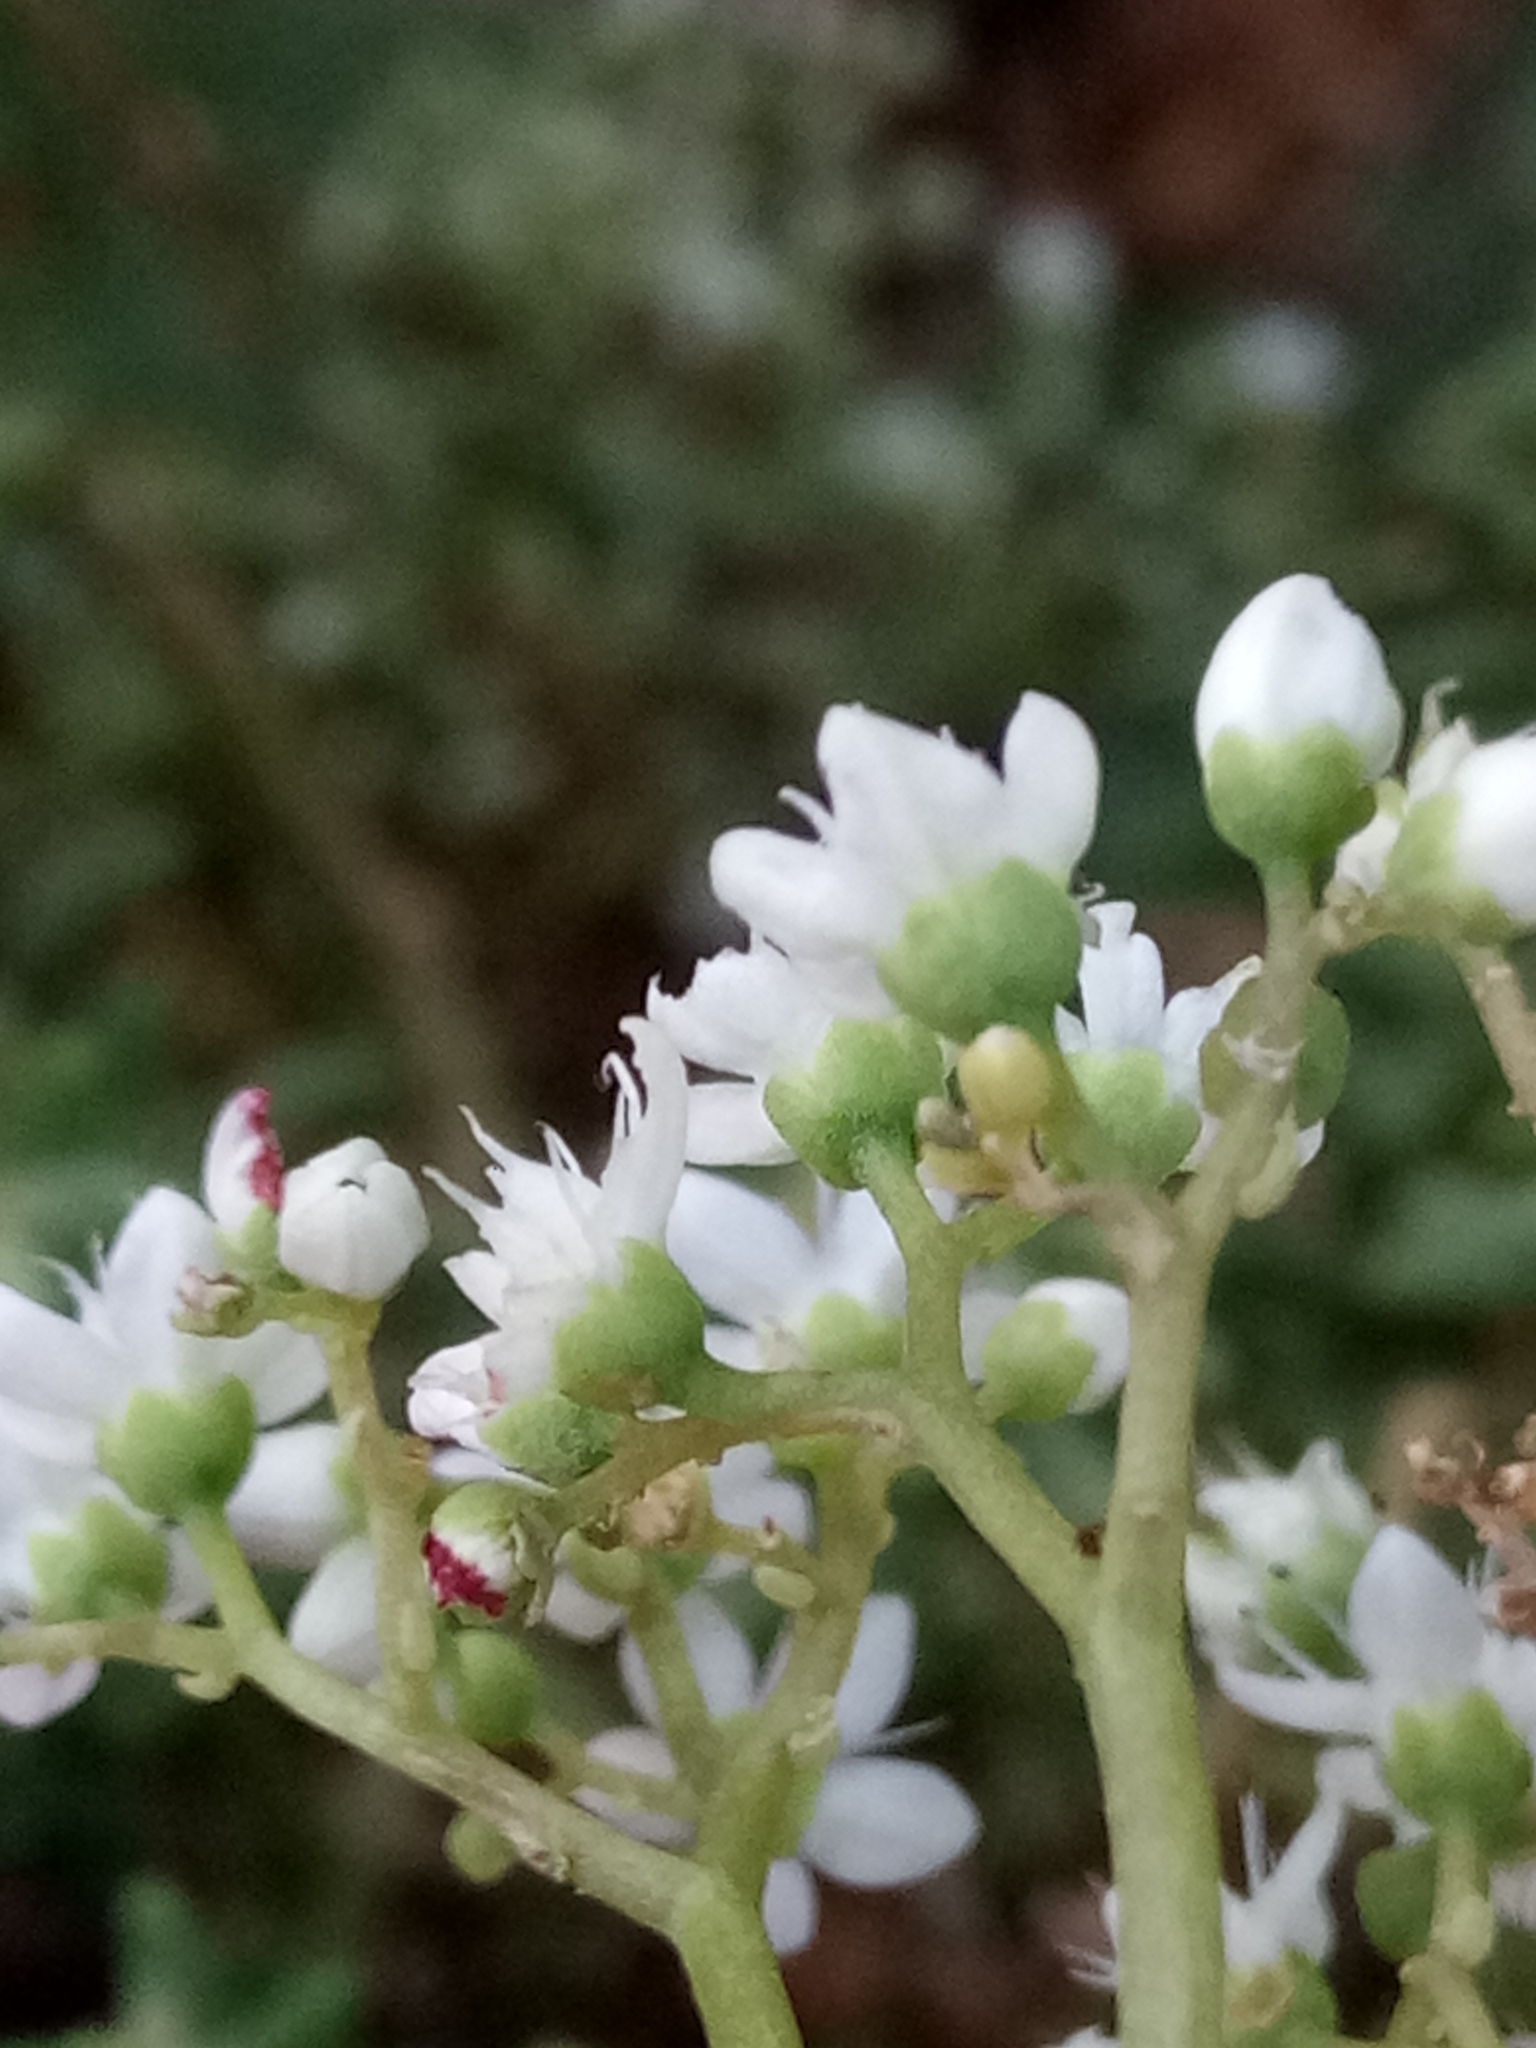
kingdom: Plantae
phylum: Tracheophyta
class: Magnoliopsida
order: Saxifragales
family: Crassulaceae
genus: Sedum
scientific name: Sedum album
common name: White stonecrop
